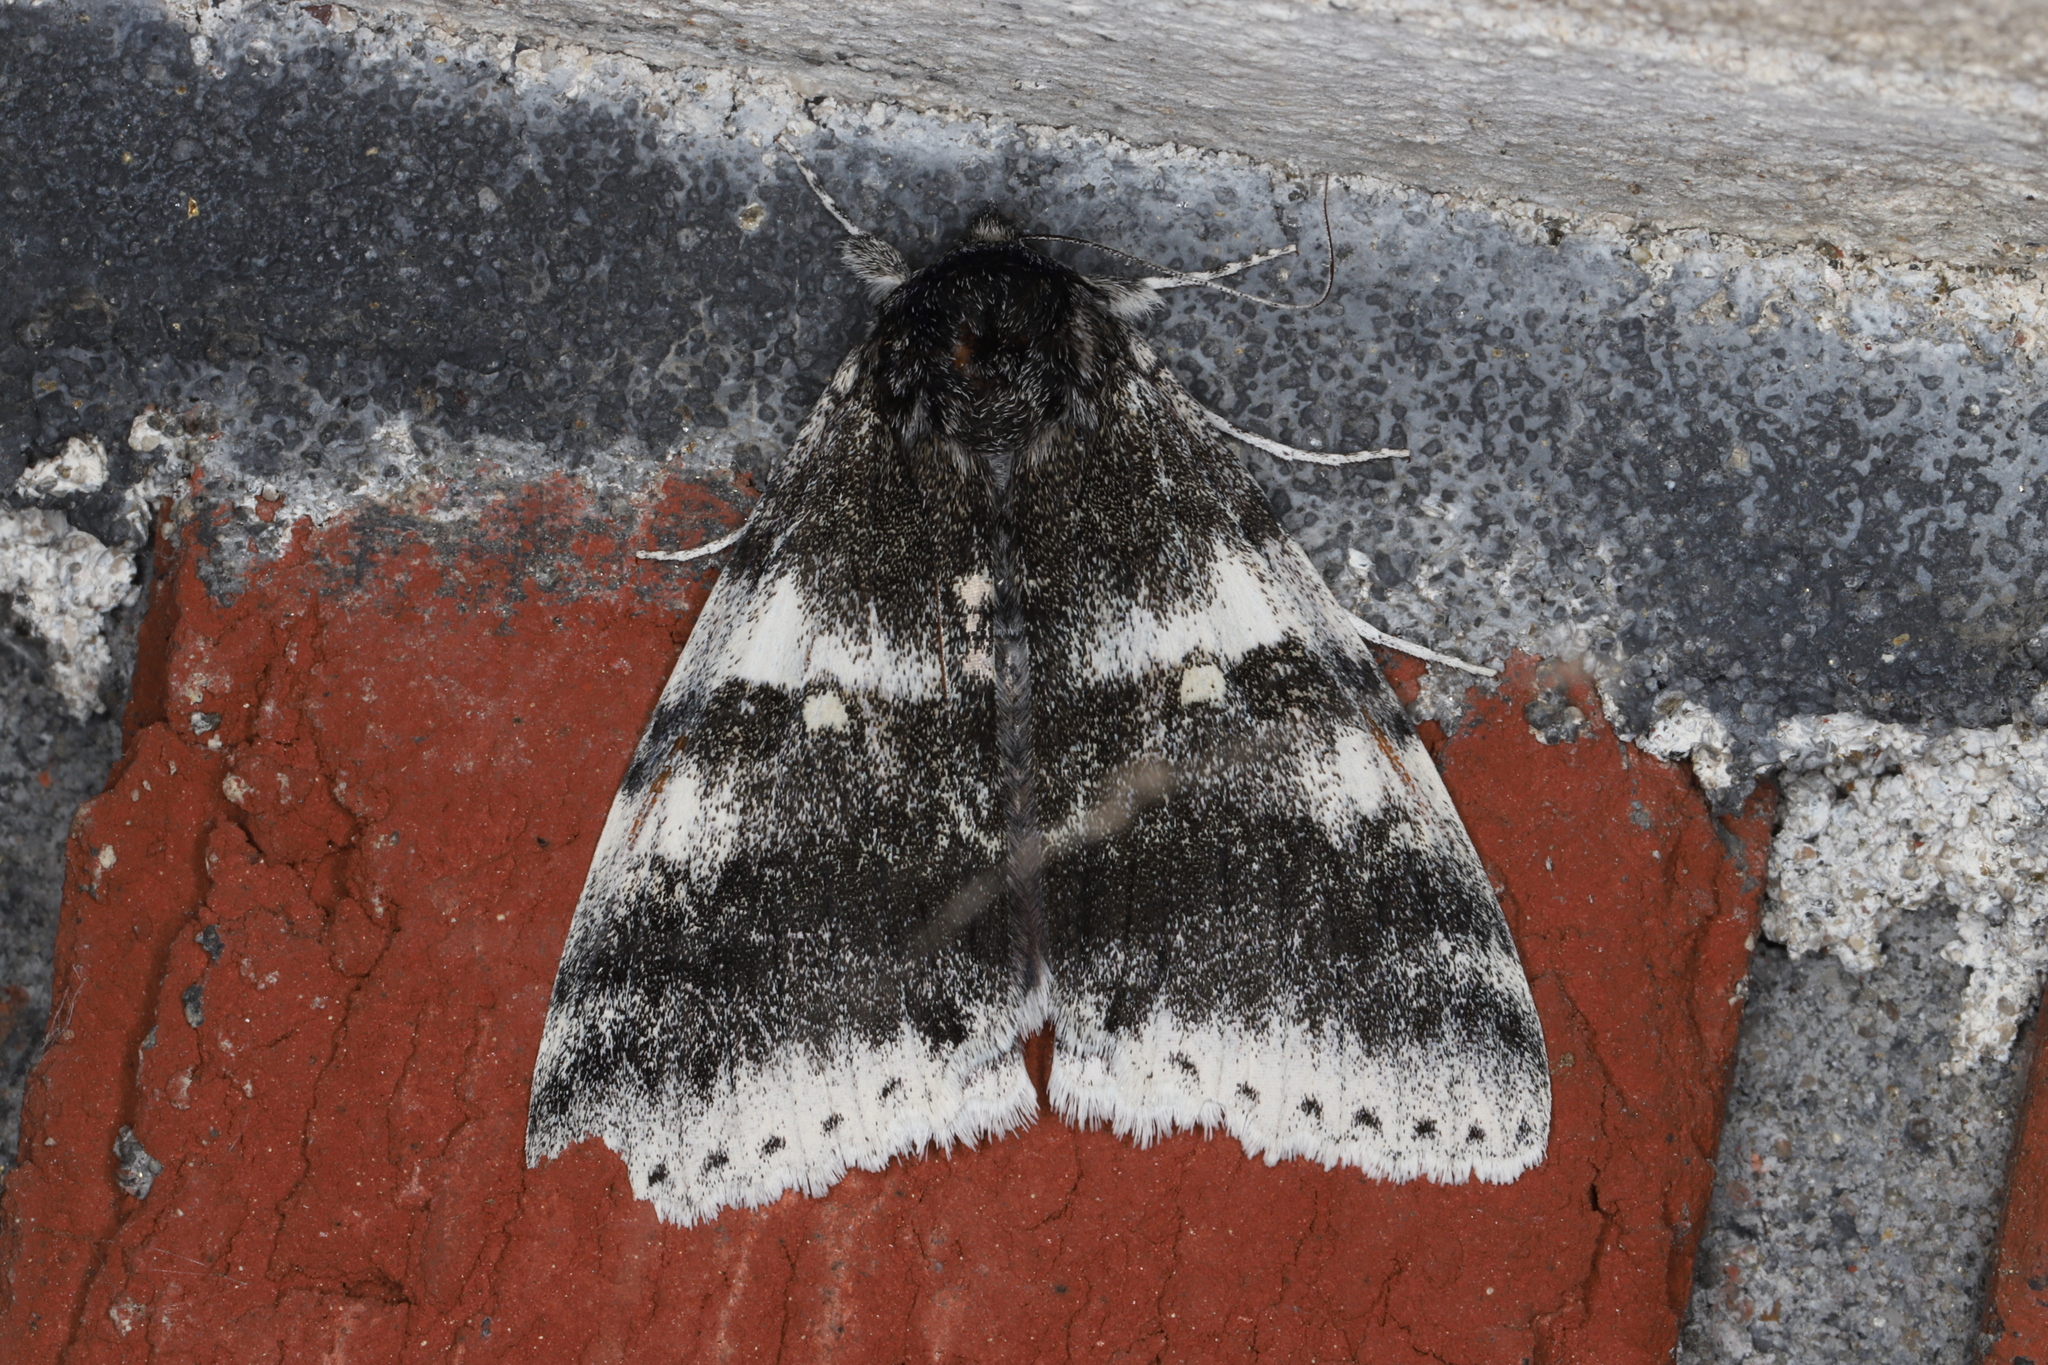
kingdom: Animalia
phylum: Arthropoda
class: Insecta
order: Lepidoptera
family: Erebidae
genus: Catocala
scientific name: Catocala relicta
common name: White underwing
